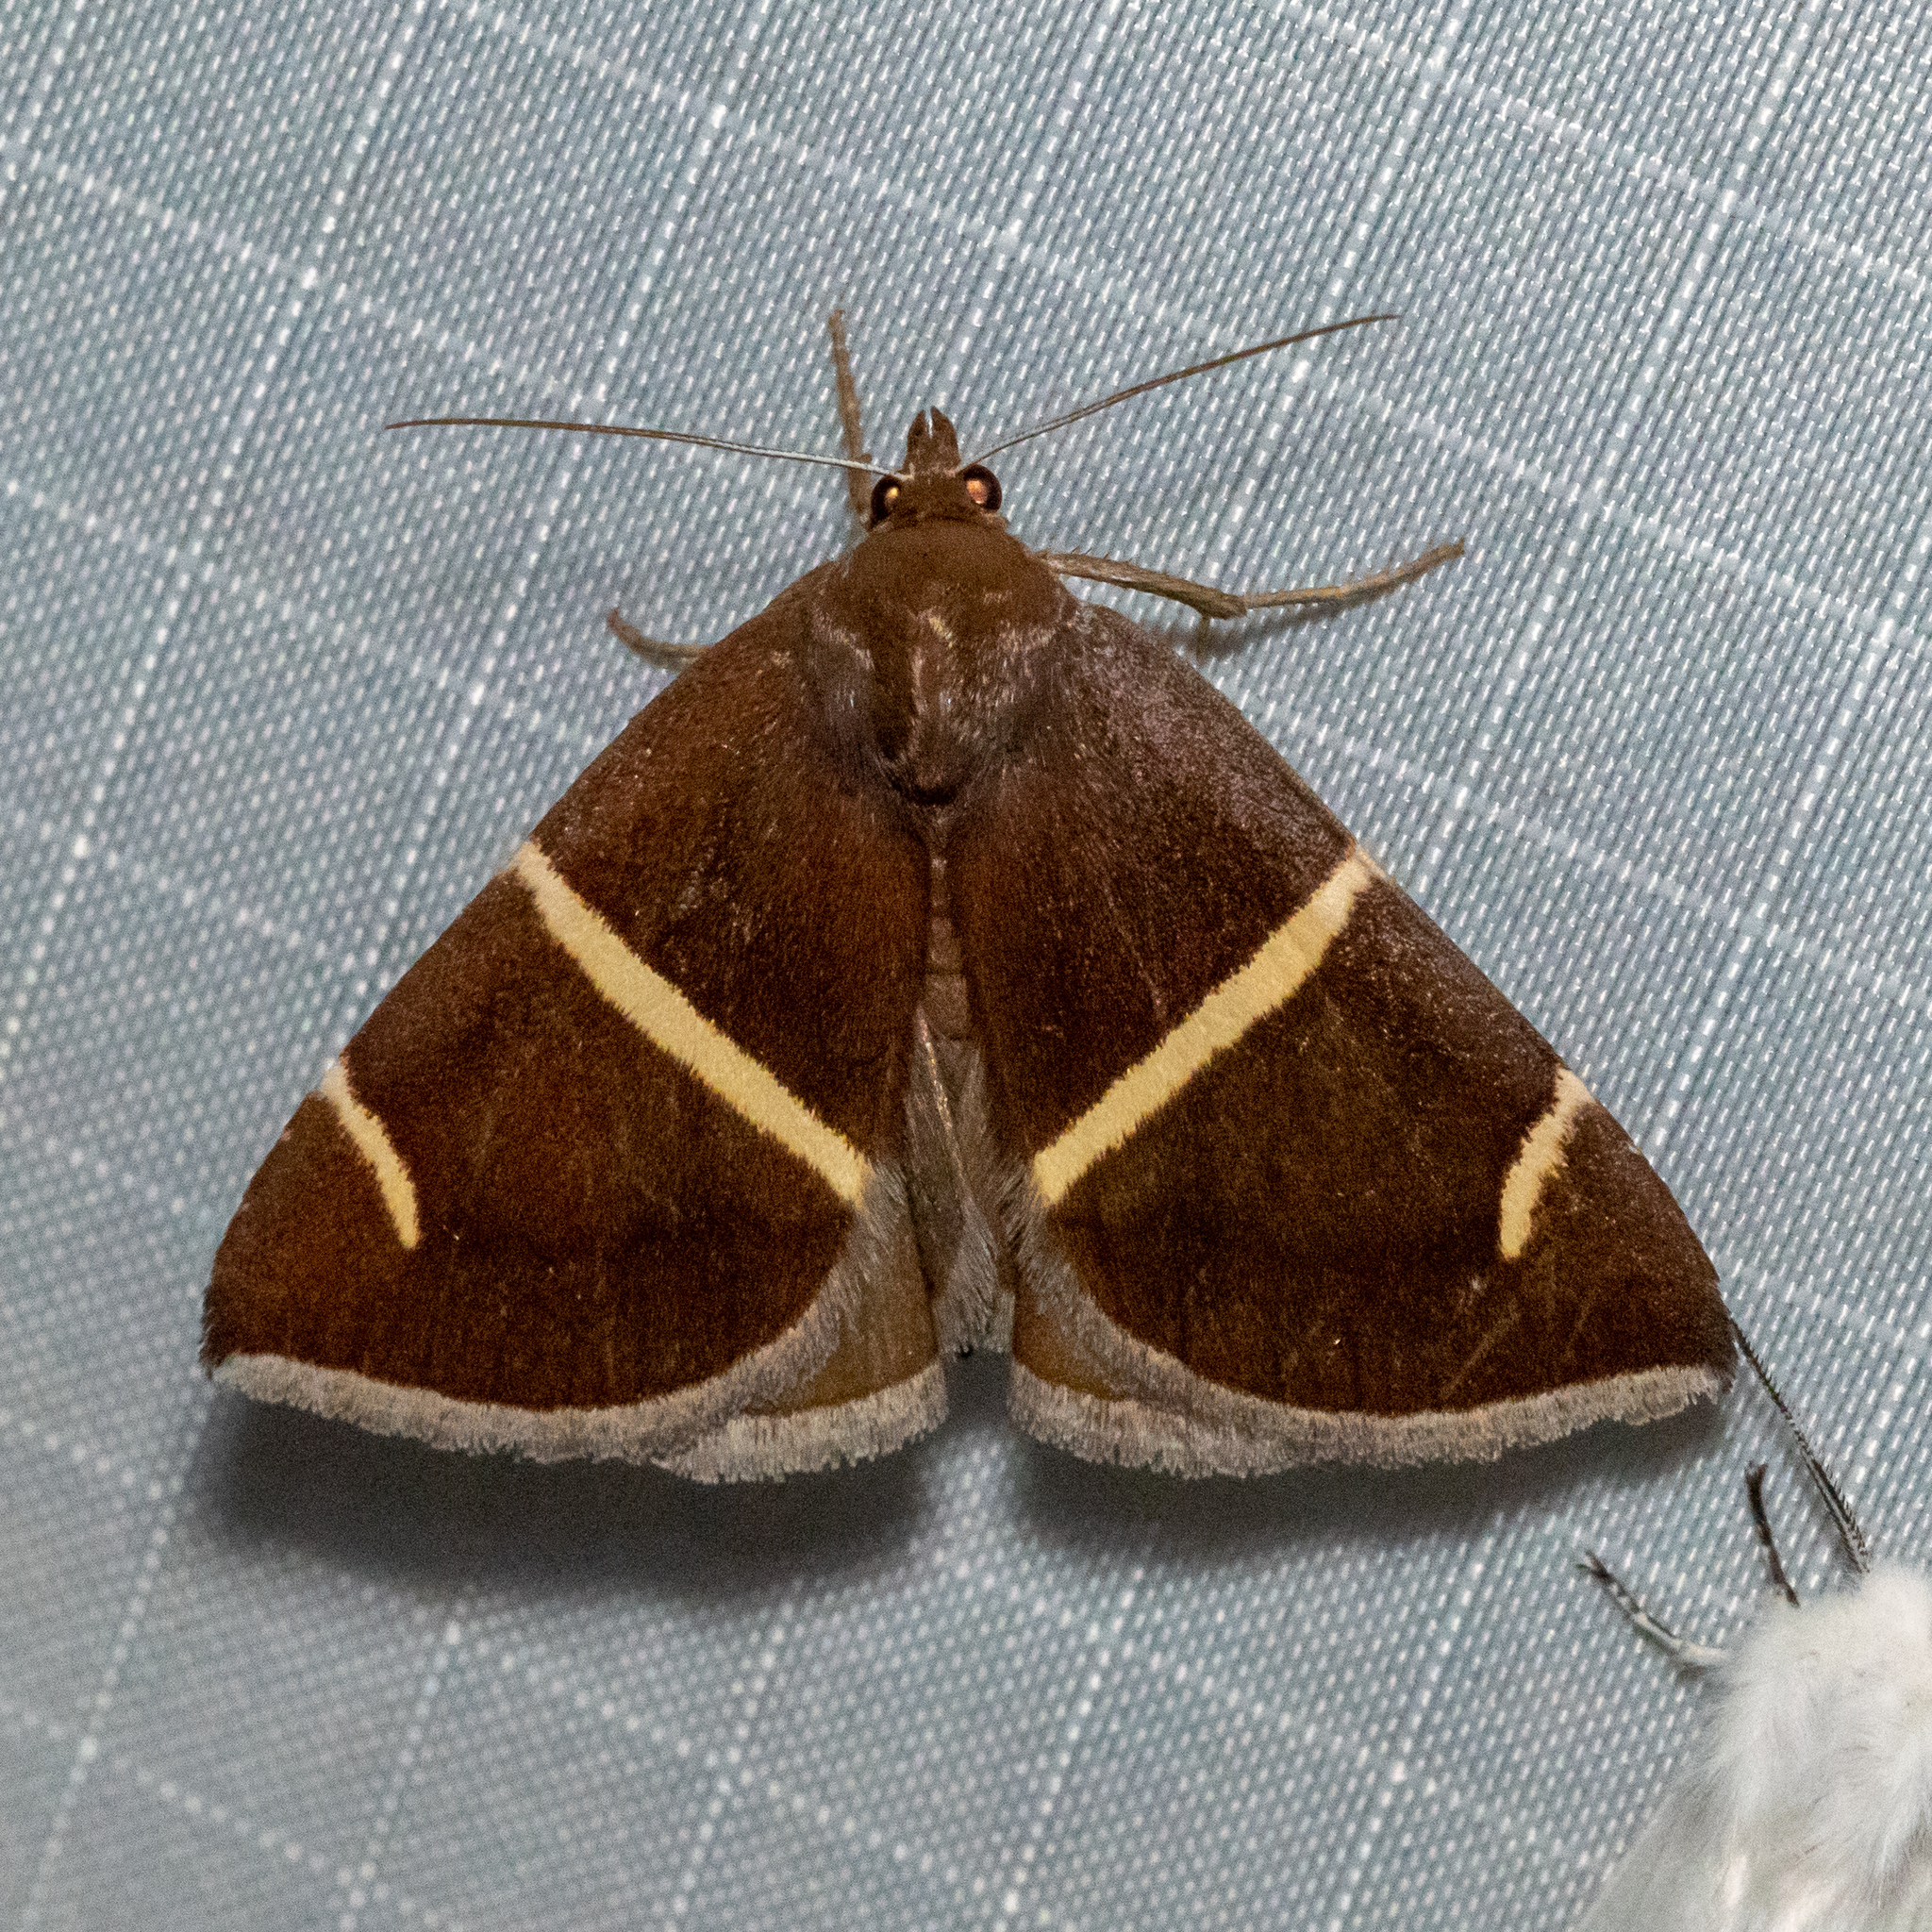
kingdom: Animalia
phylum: Arthropoda
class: Insecta
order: Lepidoptera
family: Erebidae
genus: Argyrostrotis
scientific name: Argyrostrotis anilis
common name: Short-lined chocolate
